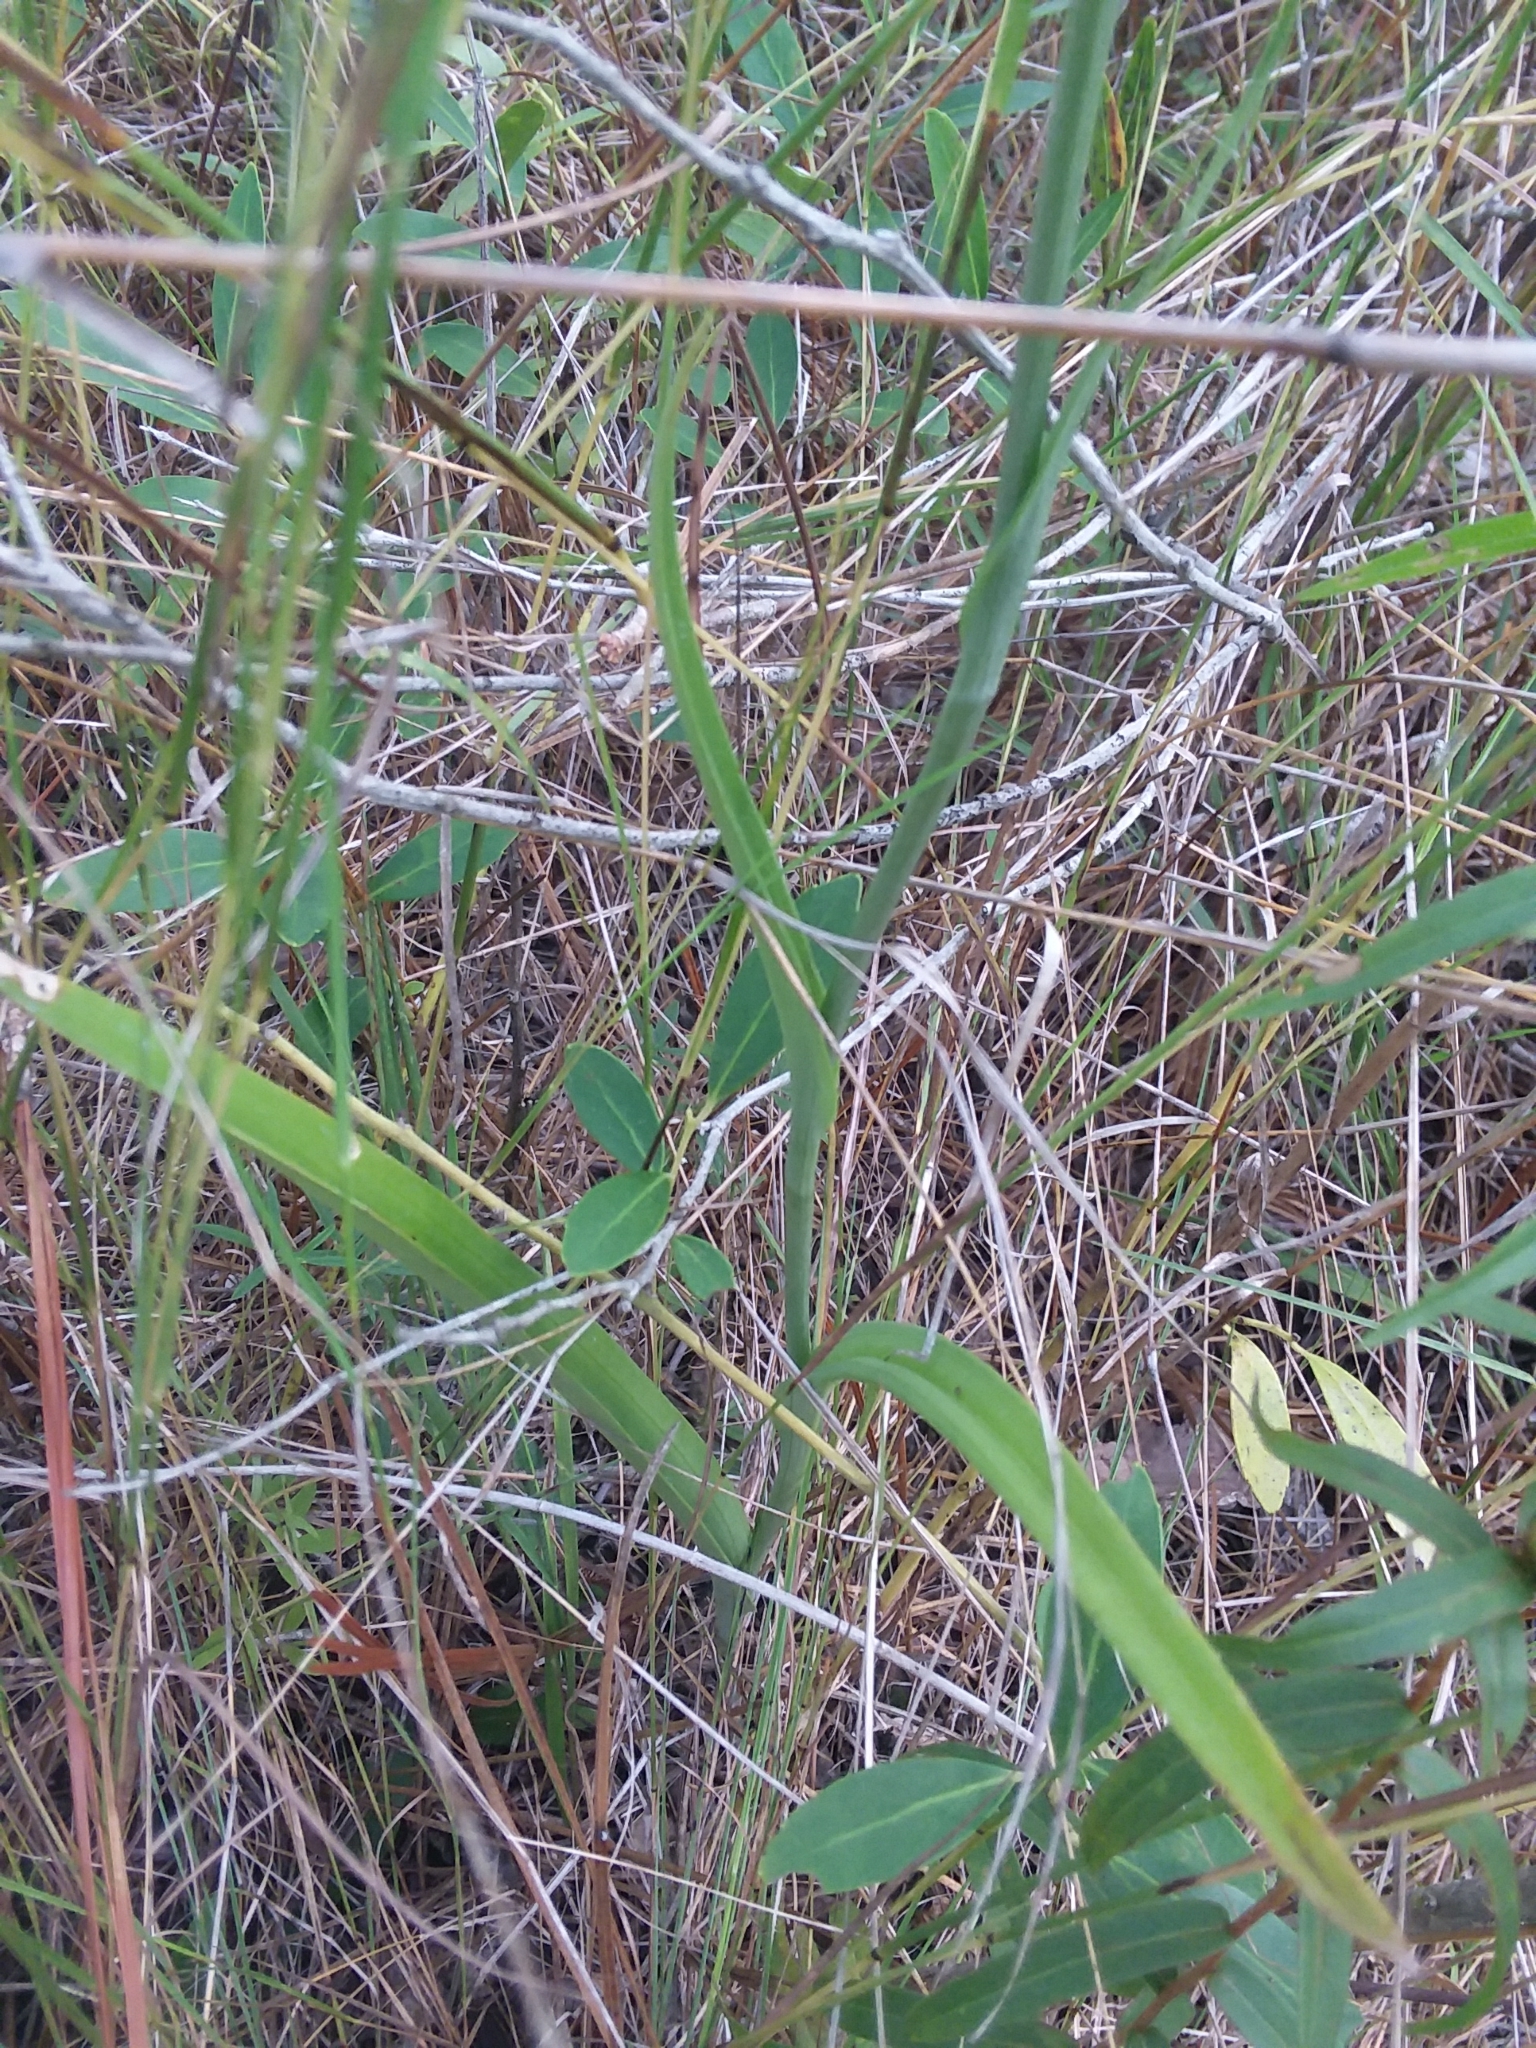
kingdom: Plantae
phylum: Tracheophyta
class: Liliopsida
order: Asparagales
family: Orchidaceae
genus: Platanthera
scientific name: Platanthera ciliaris
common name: Yellow fringed orchid
